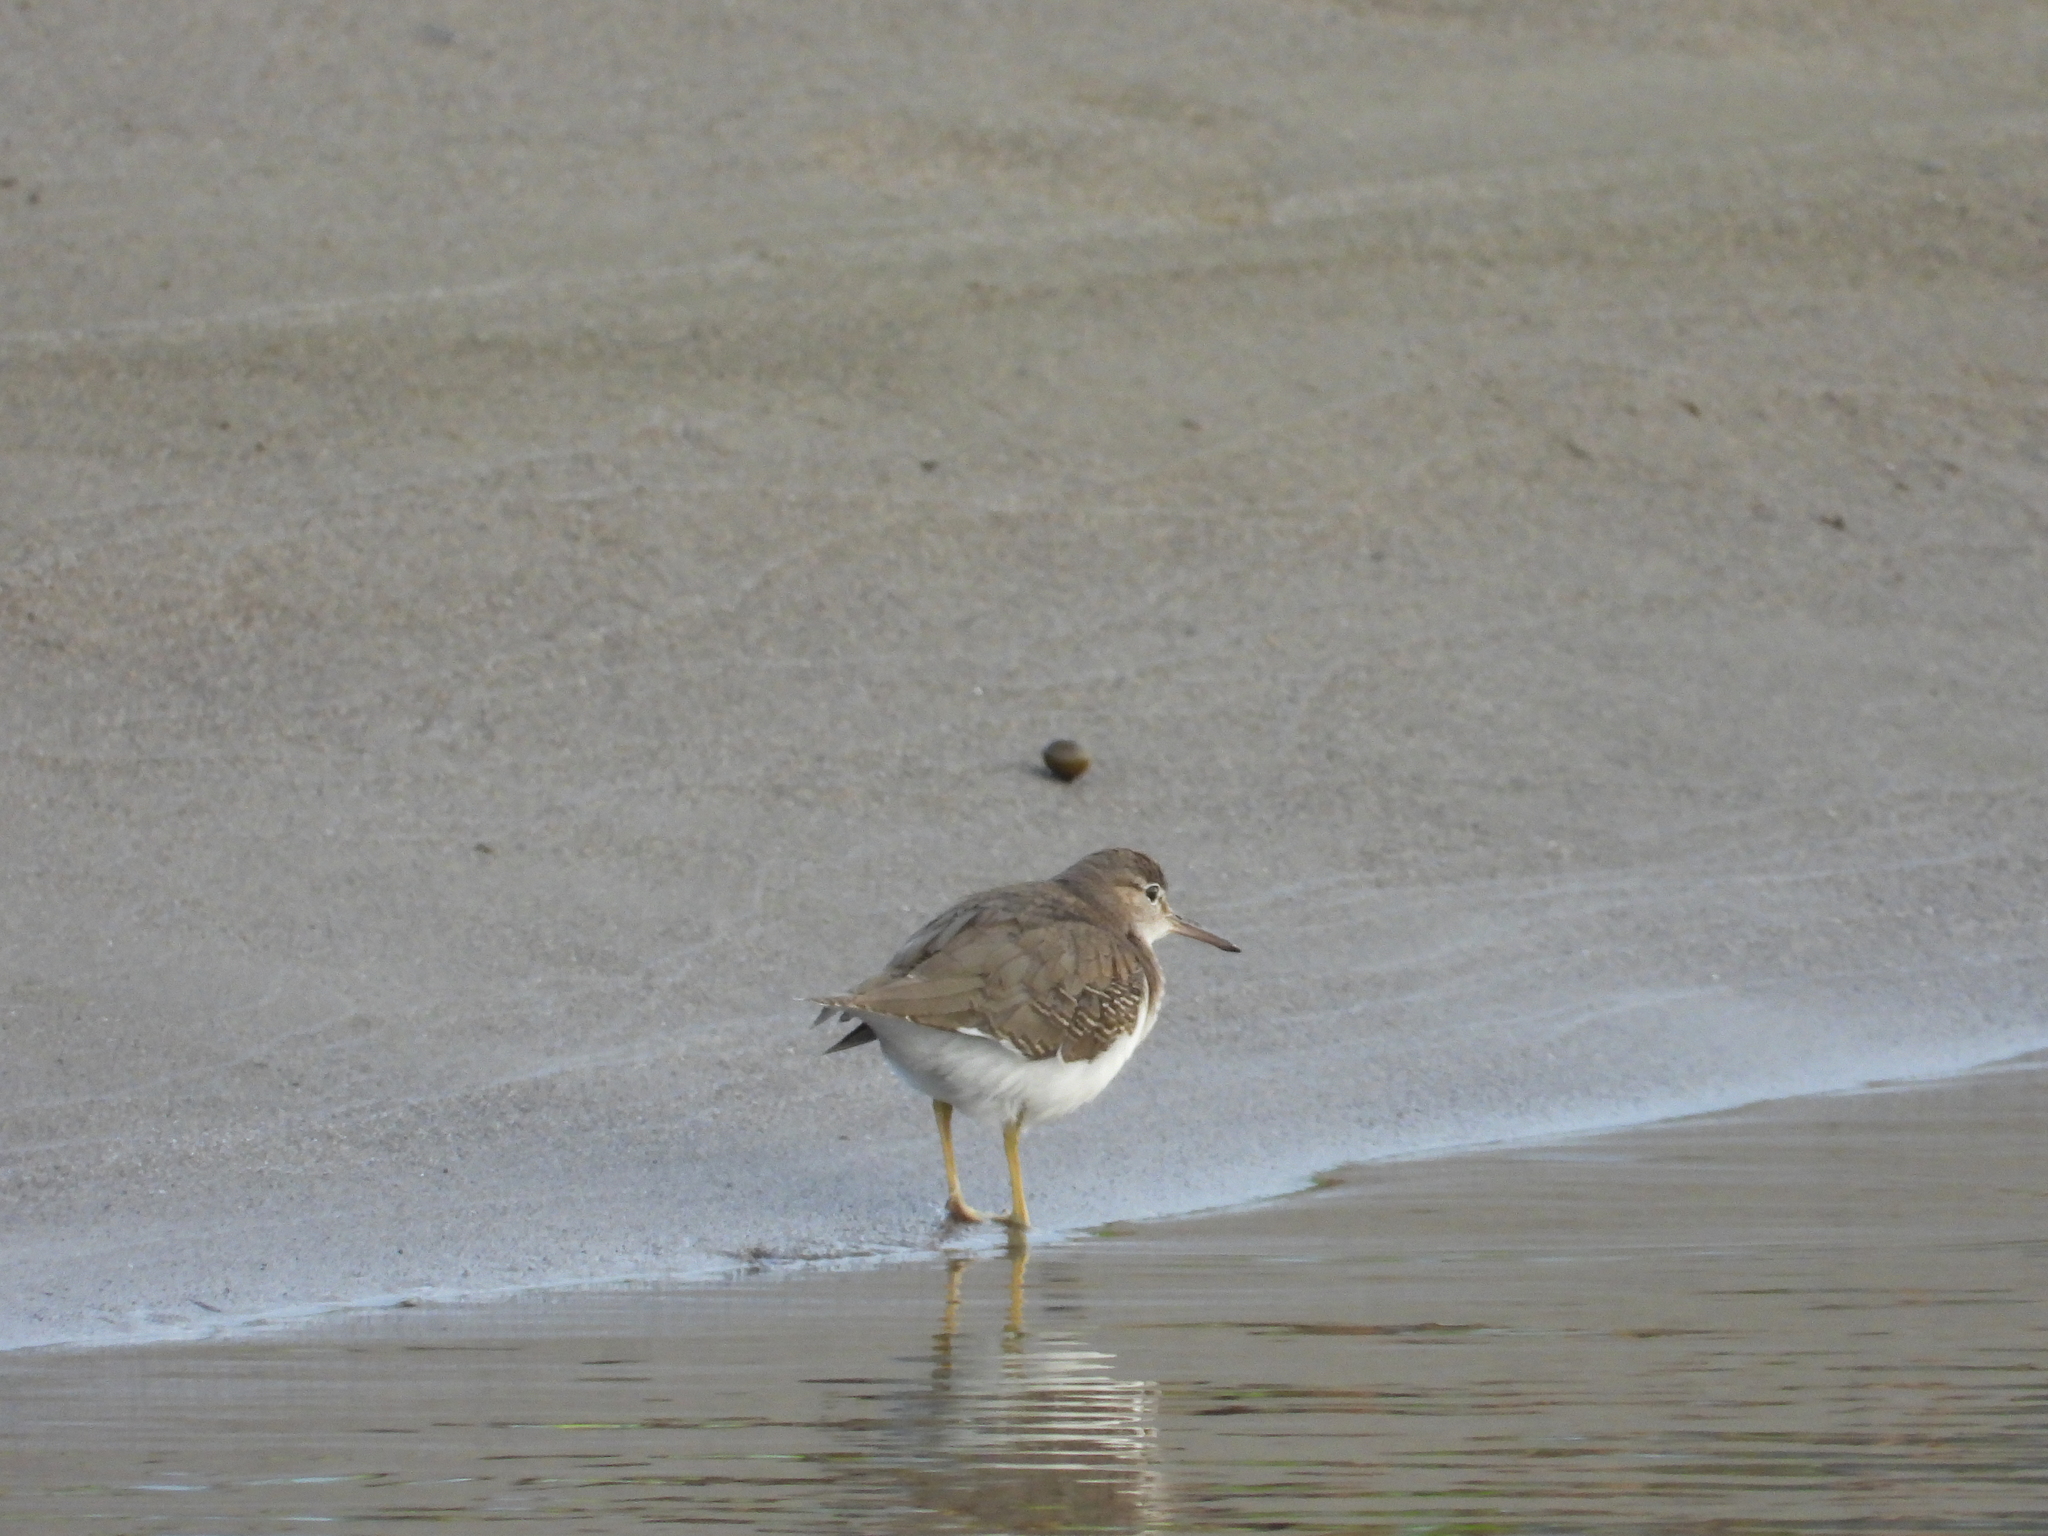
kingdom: Animalia
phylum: Chordata
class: Aves
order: Charadriiformes
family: Scolopacidae
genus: Actitis
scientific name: Actitis macularius
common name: Spotted sandpiper
